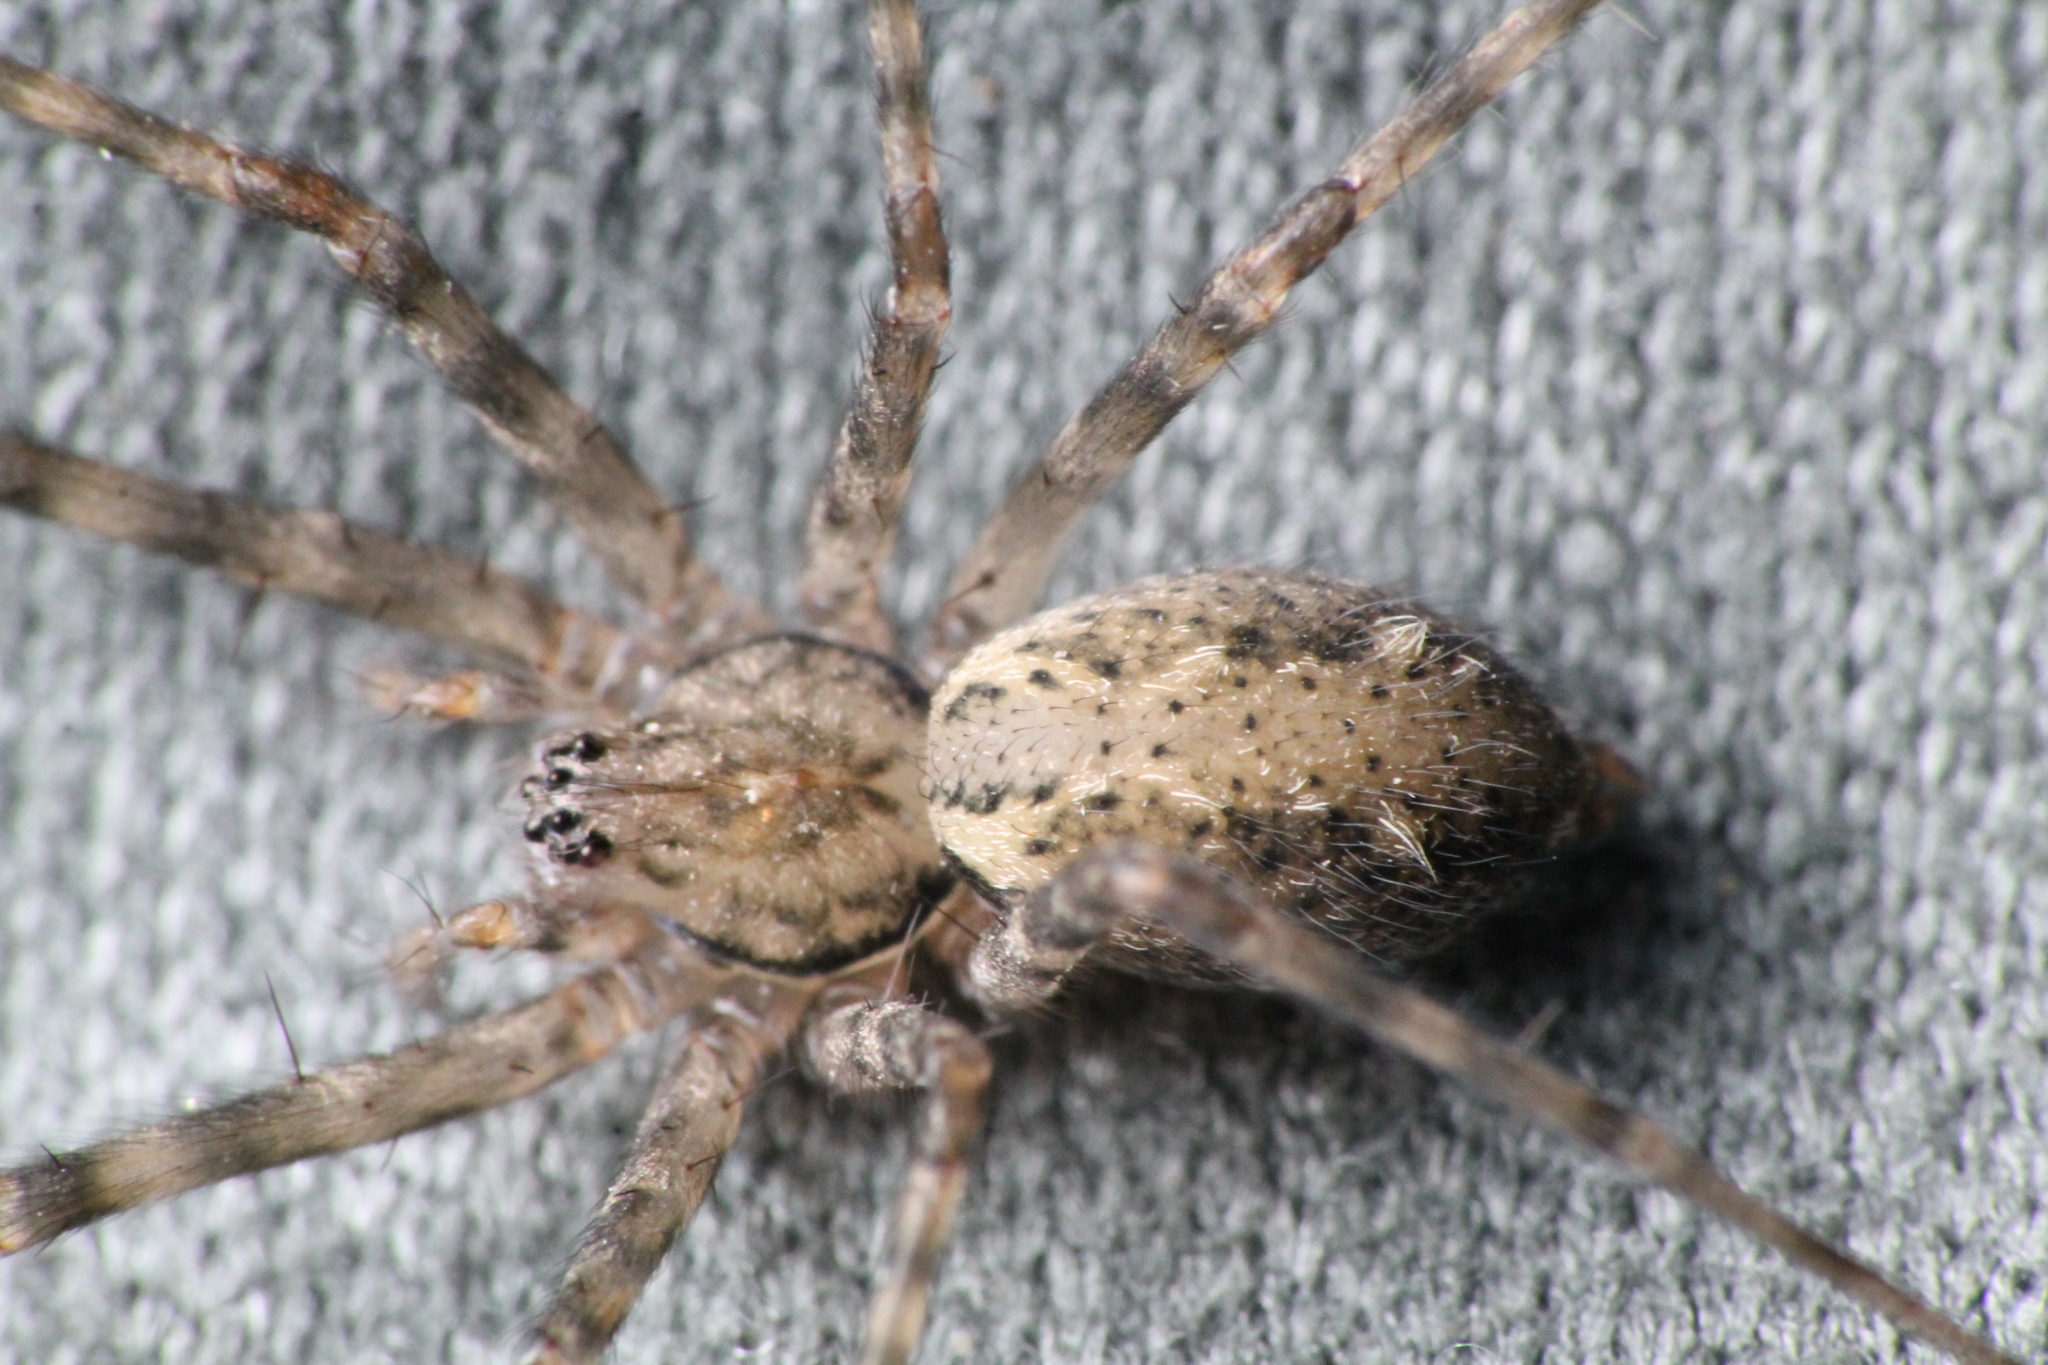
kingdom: Animalia
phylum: Arthropoda
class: Arachnida
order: Araneae
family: Stiphidiidae
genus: Stiphidion
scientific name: Stiphidion facetum
